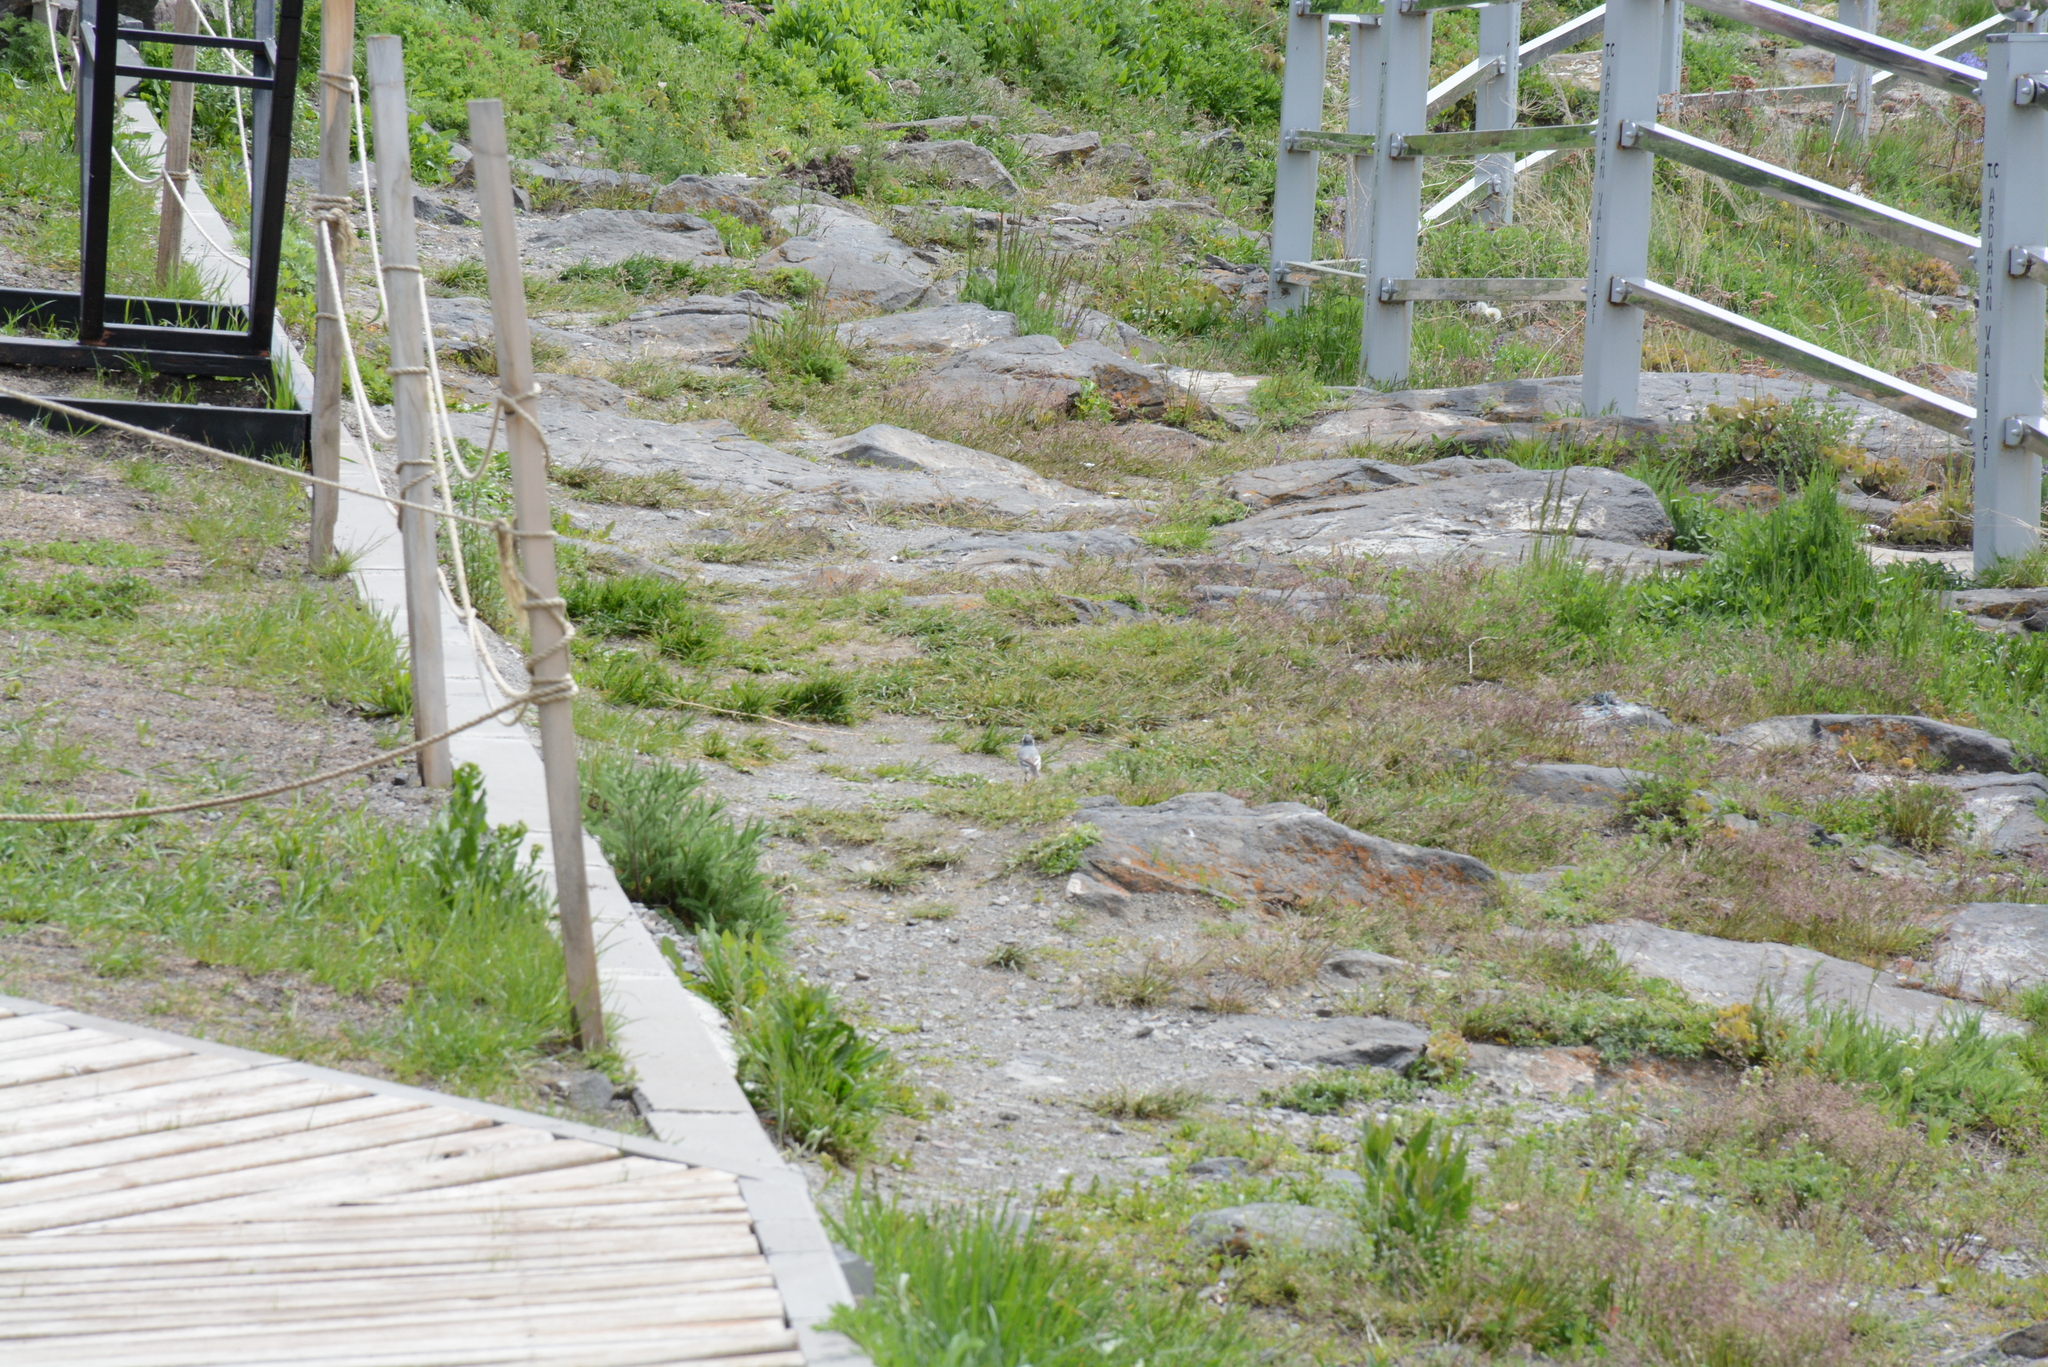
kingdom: Animalia
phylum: Chordata
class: Aves
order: Passeriformes
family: Motacillidae
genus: Motacilla
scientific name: Motacilla alba
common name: White wagtail
